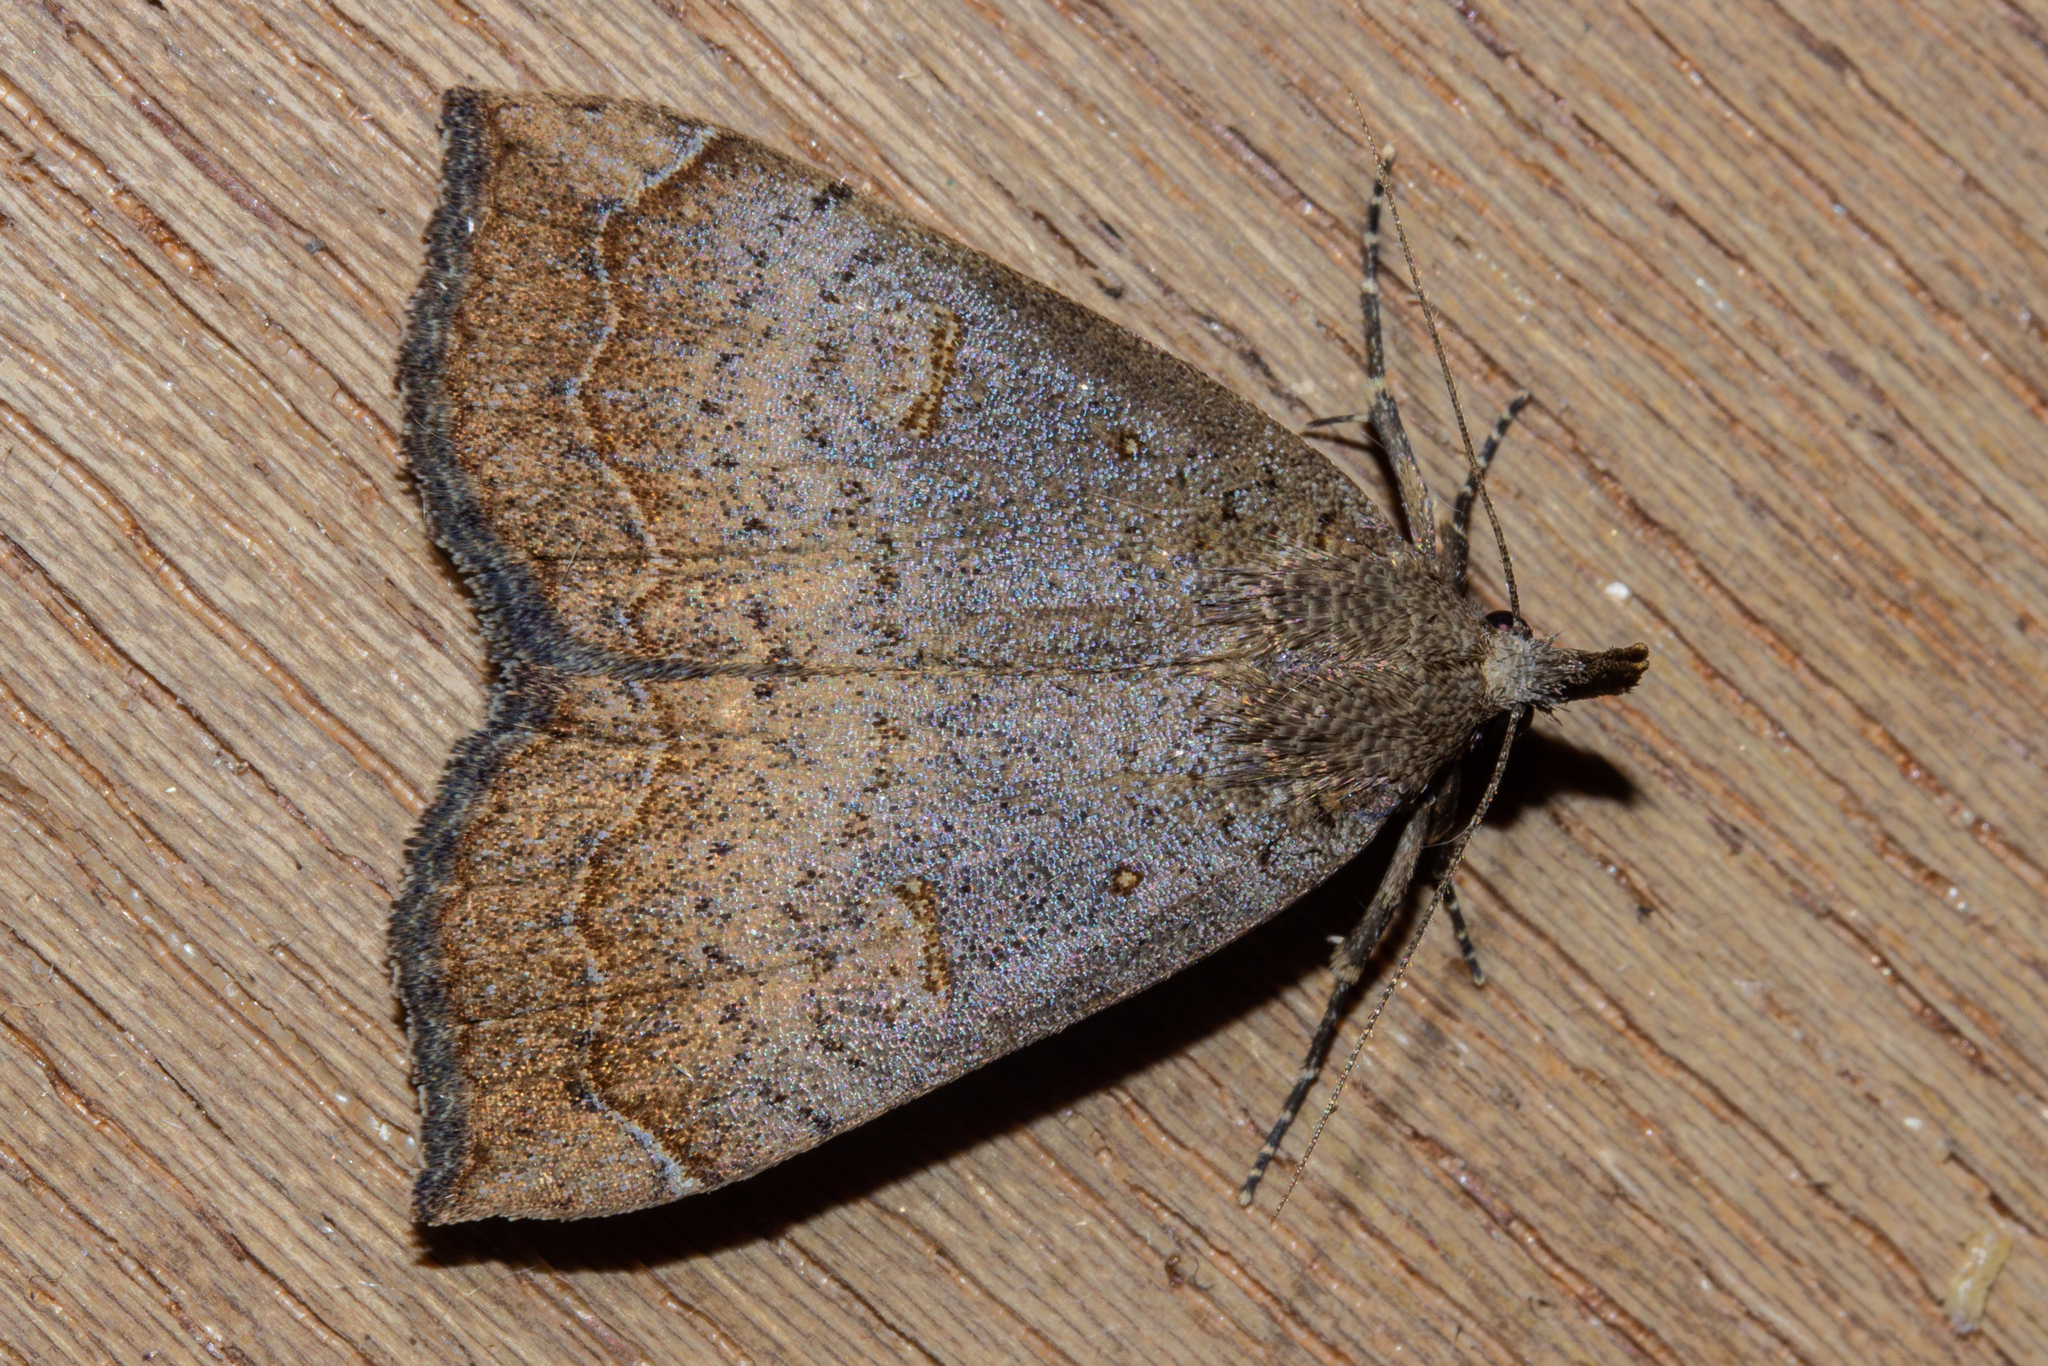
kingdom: Animalia
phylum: Arthropoda
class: Insecta
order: Lepidoptera
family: Erebidae
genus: Rhapsa
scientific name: Rhapsa scotosialis
